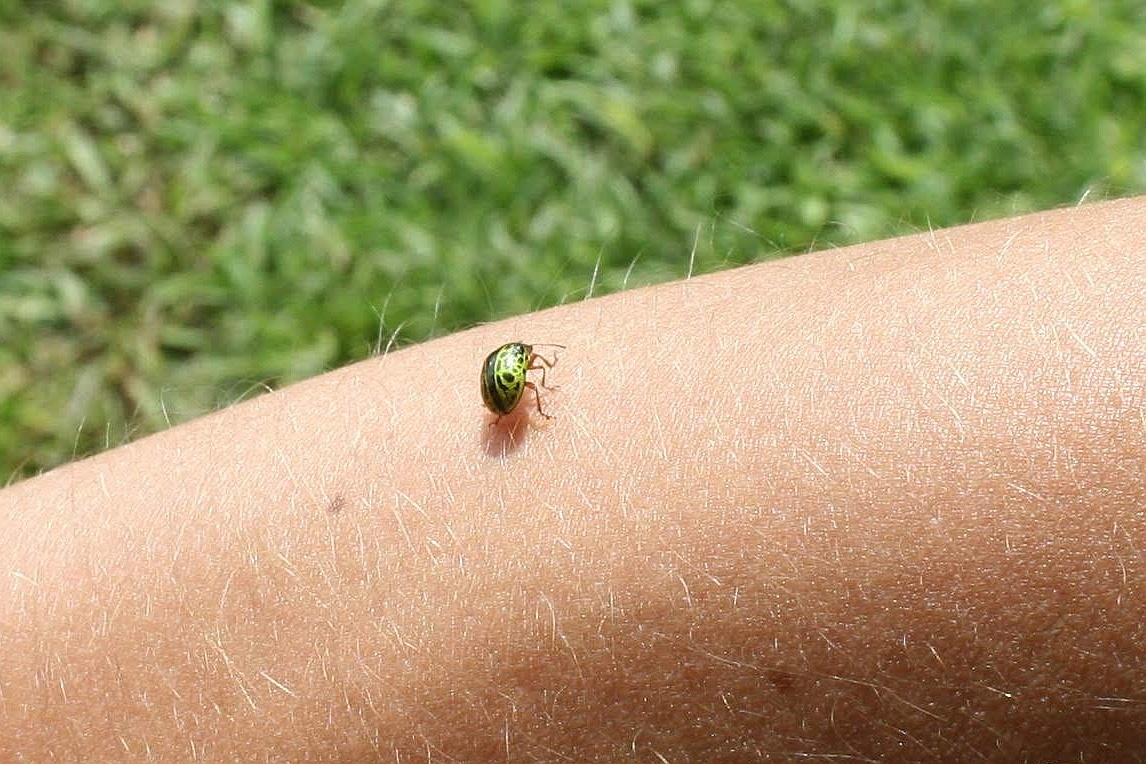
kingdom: Animalia
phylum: Arthropoda
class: Insecta
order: Coleoptera
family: Chrysomelidae
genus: Calligrapha
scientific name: Calligrapha pantherina
